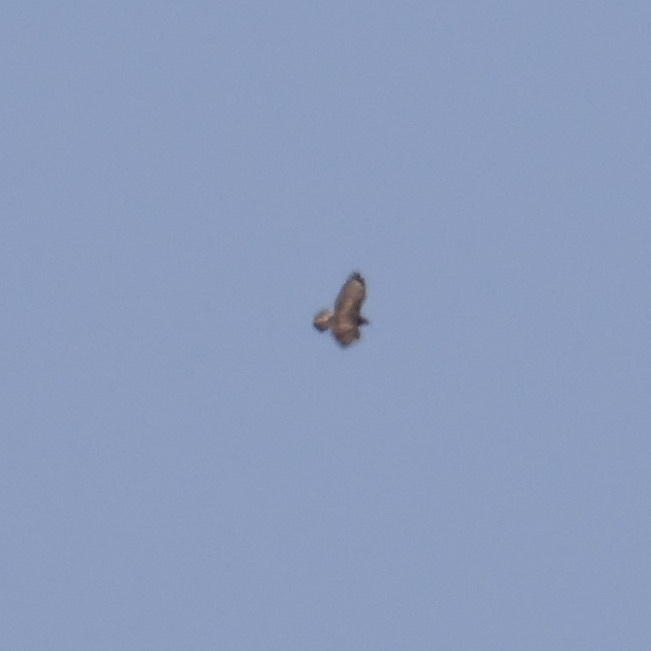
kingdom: Animalia
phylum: Chordata
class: Aves
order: Accipitriformes
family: Accipitridae
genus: Buteo
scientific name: Buteo buteo
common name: Common buzzard
